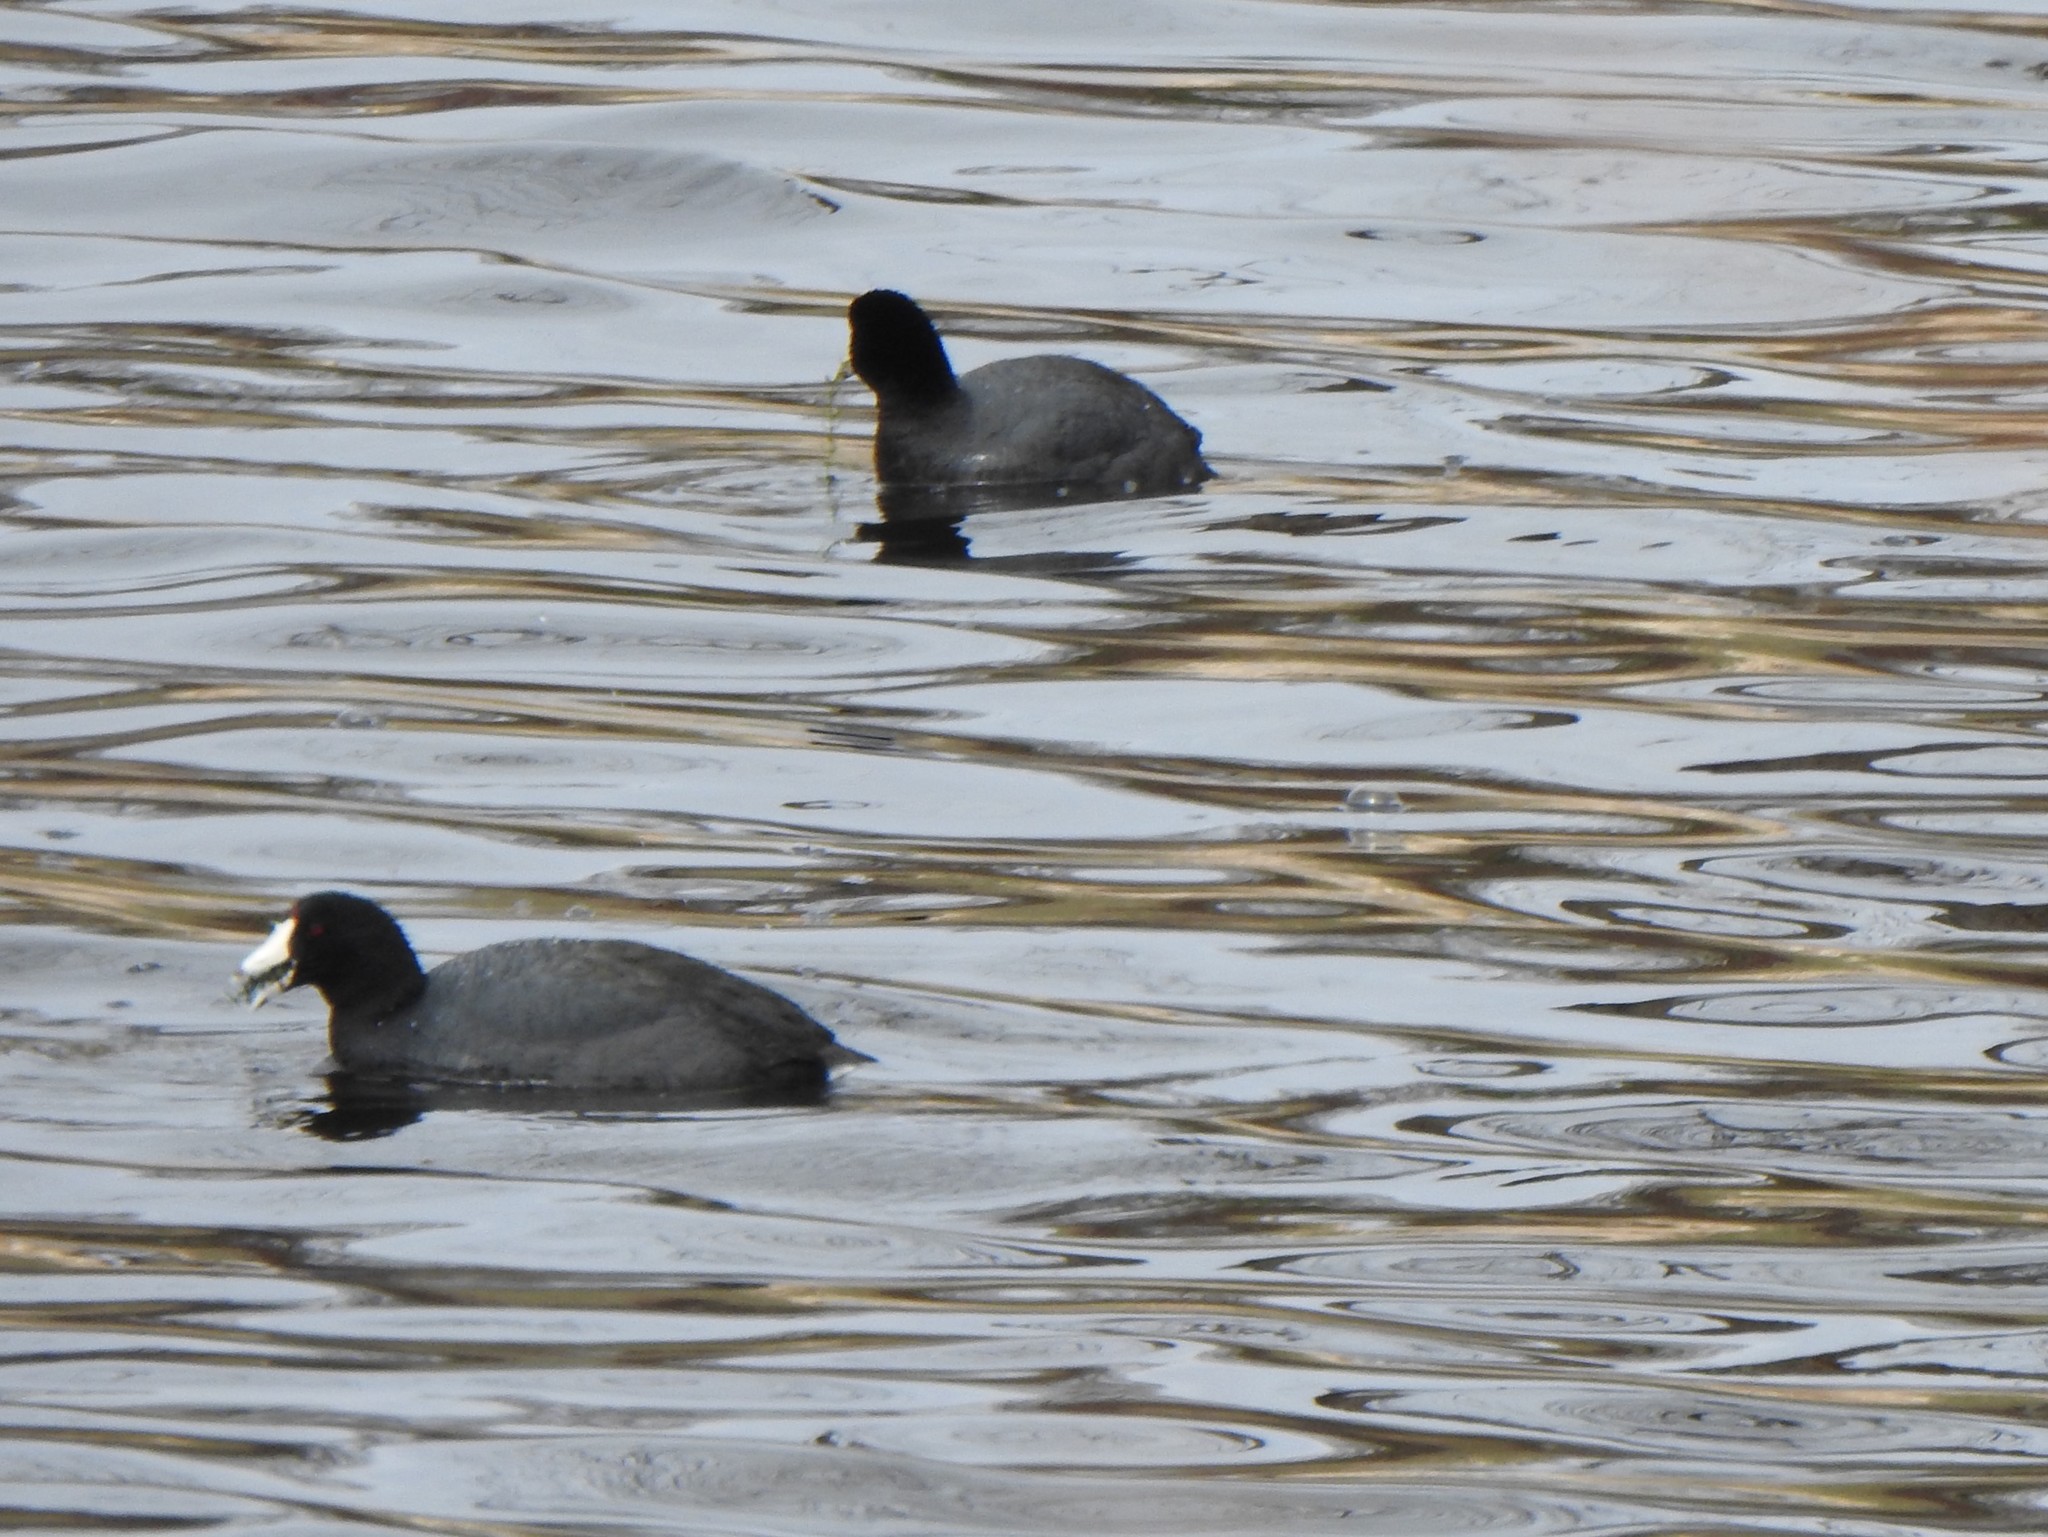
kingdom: Animalia
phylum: Chordata
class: Aves
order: Gruiformes
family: Rallidae
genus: Fulica
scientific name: Fulica americana
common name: American coot
